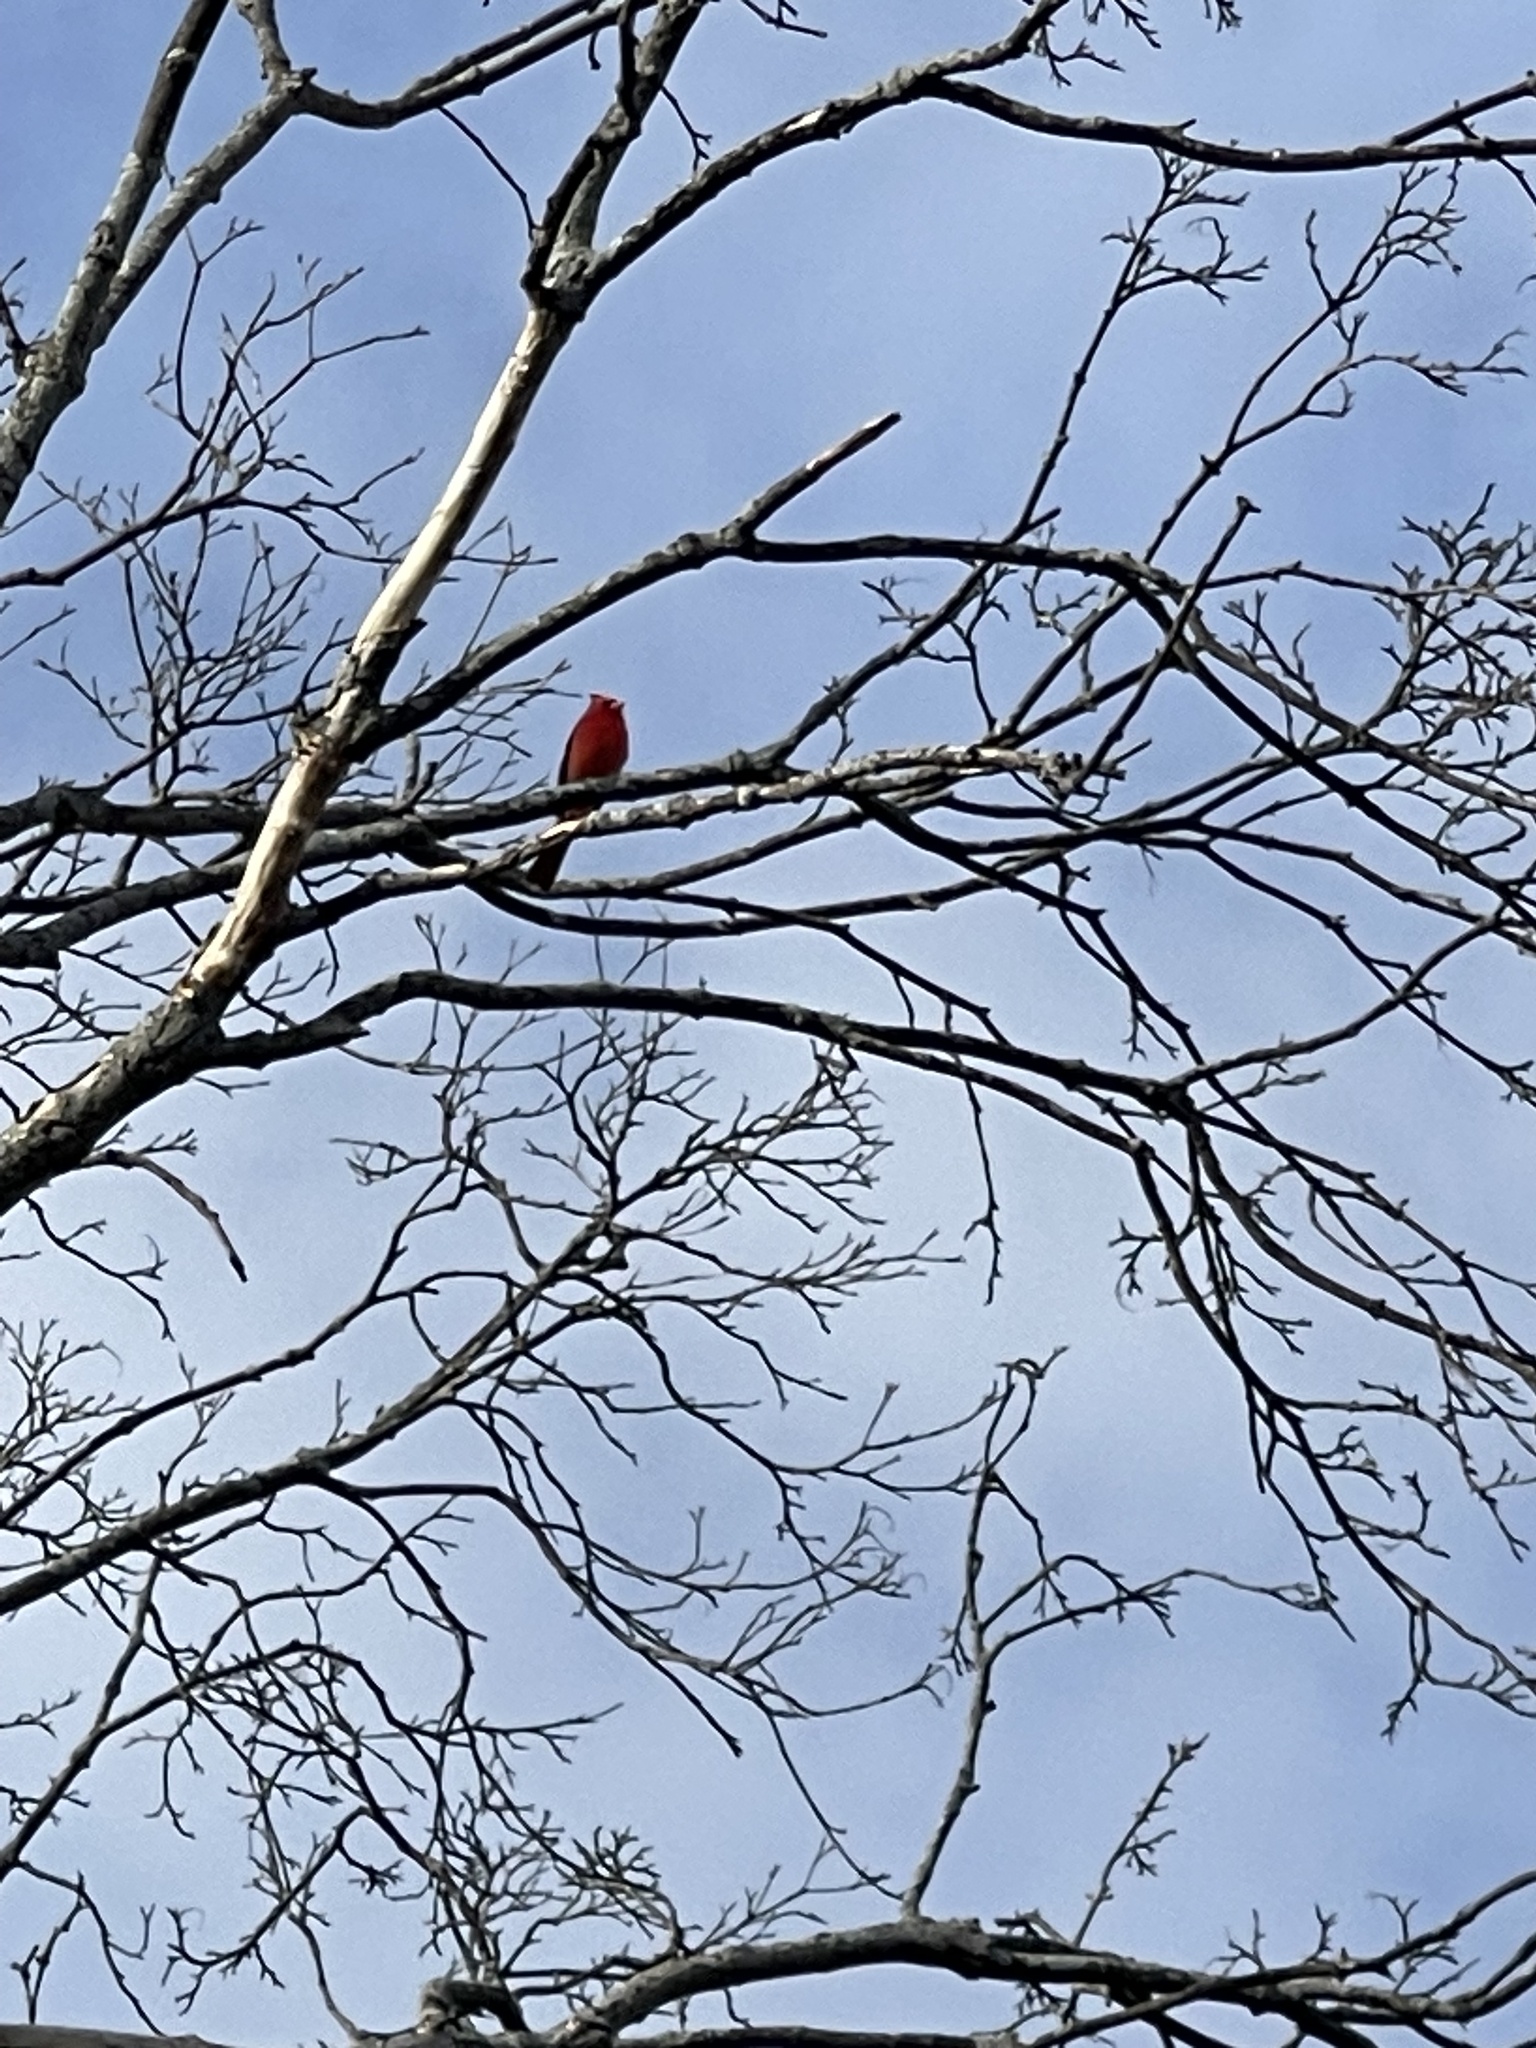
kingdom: Animalia
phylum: Chordata
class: Aves
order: Passeriformes
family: Cardinalidae
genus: Cardinalis
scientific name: Cardinalis cardinalis
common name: Northern cardinal
